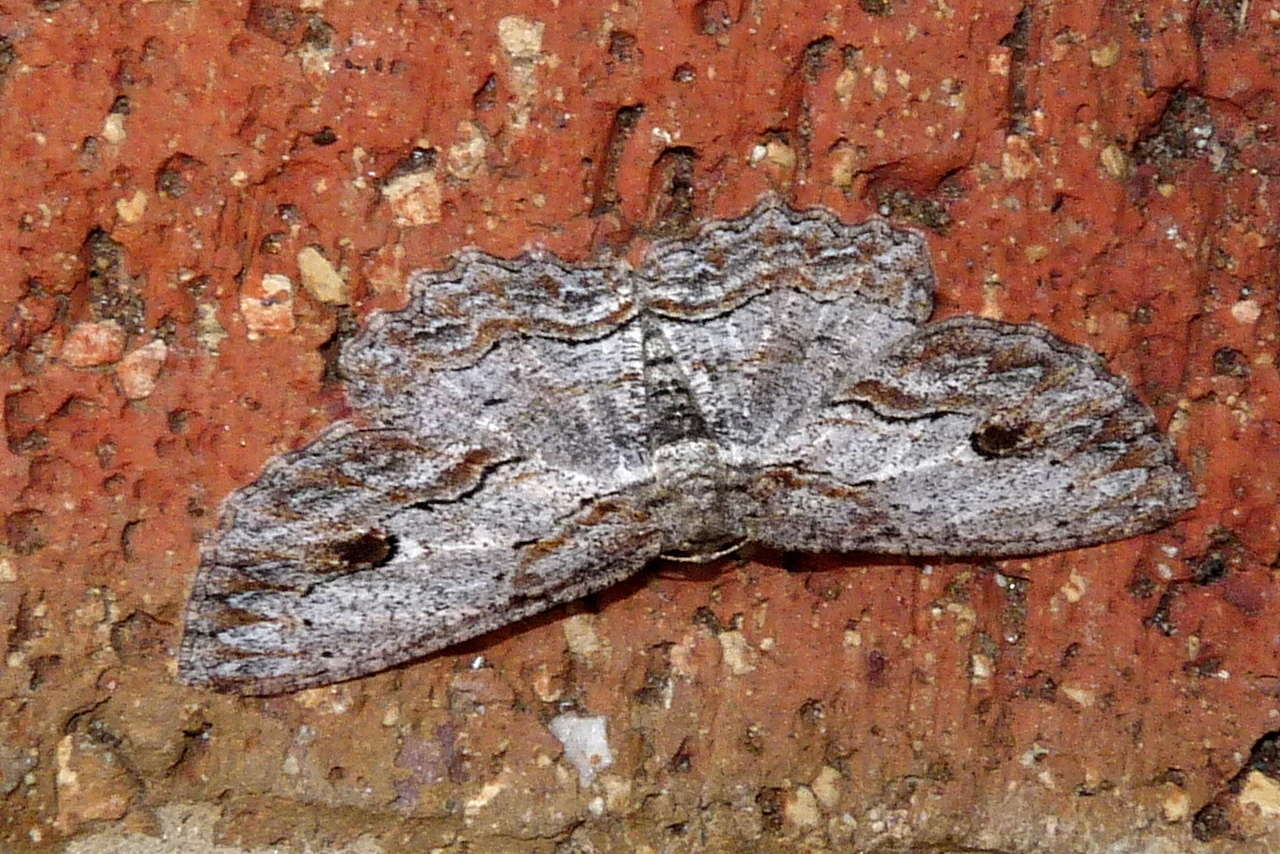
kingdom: Animalia
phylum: Arthropoda
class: Insecta
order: Lepidoptera
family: Geometridae
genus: Ectropis
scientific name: Ectropis excursaria
